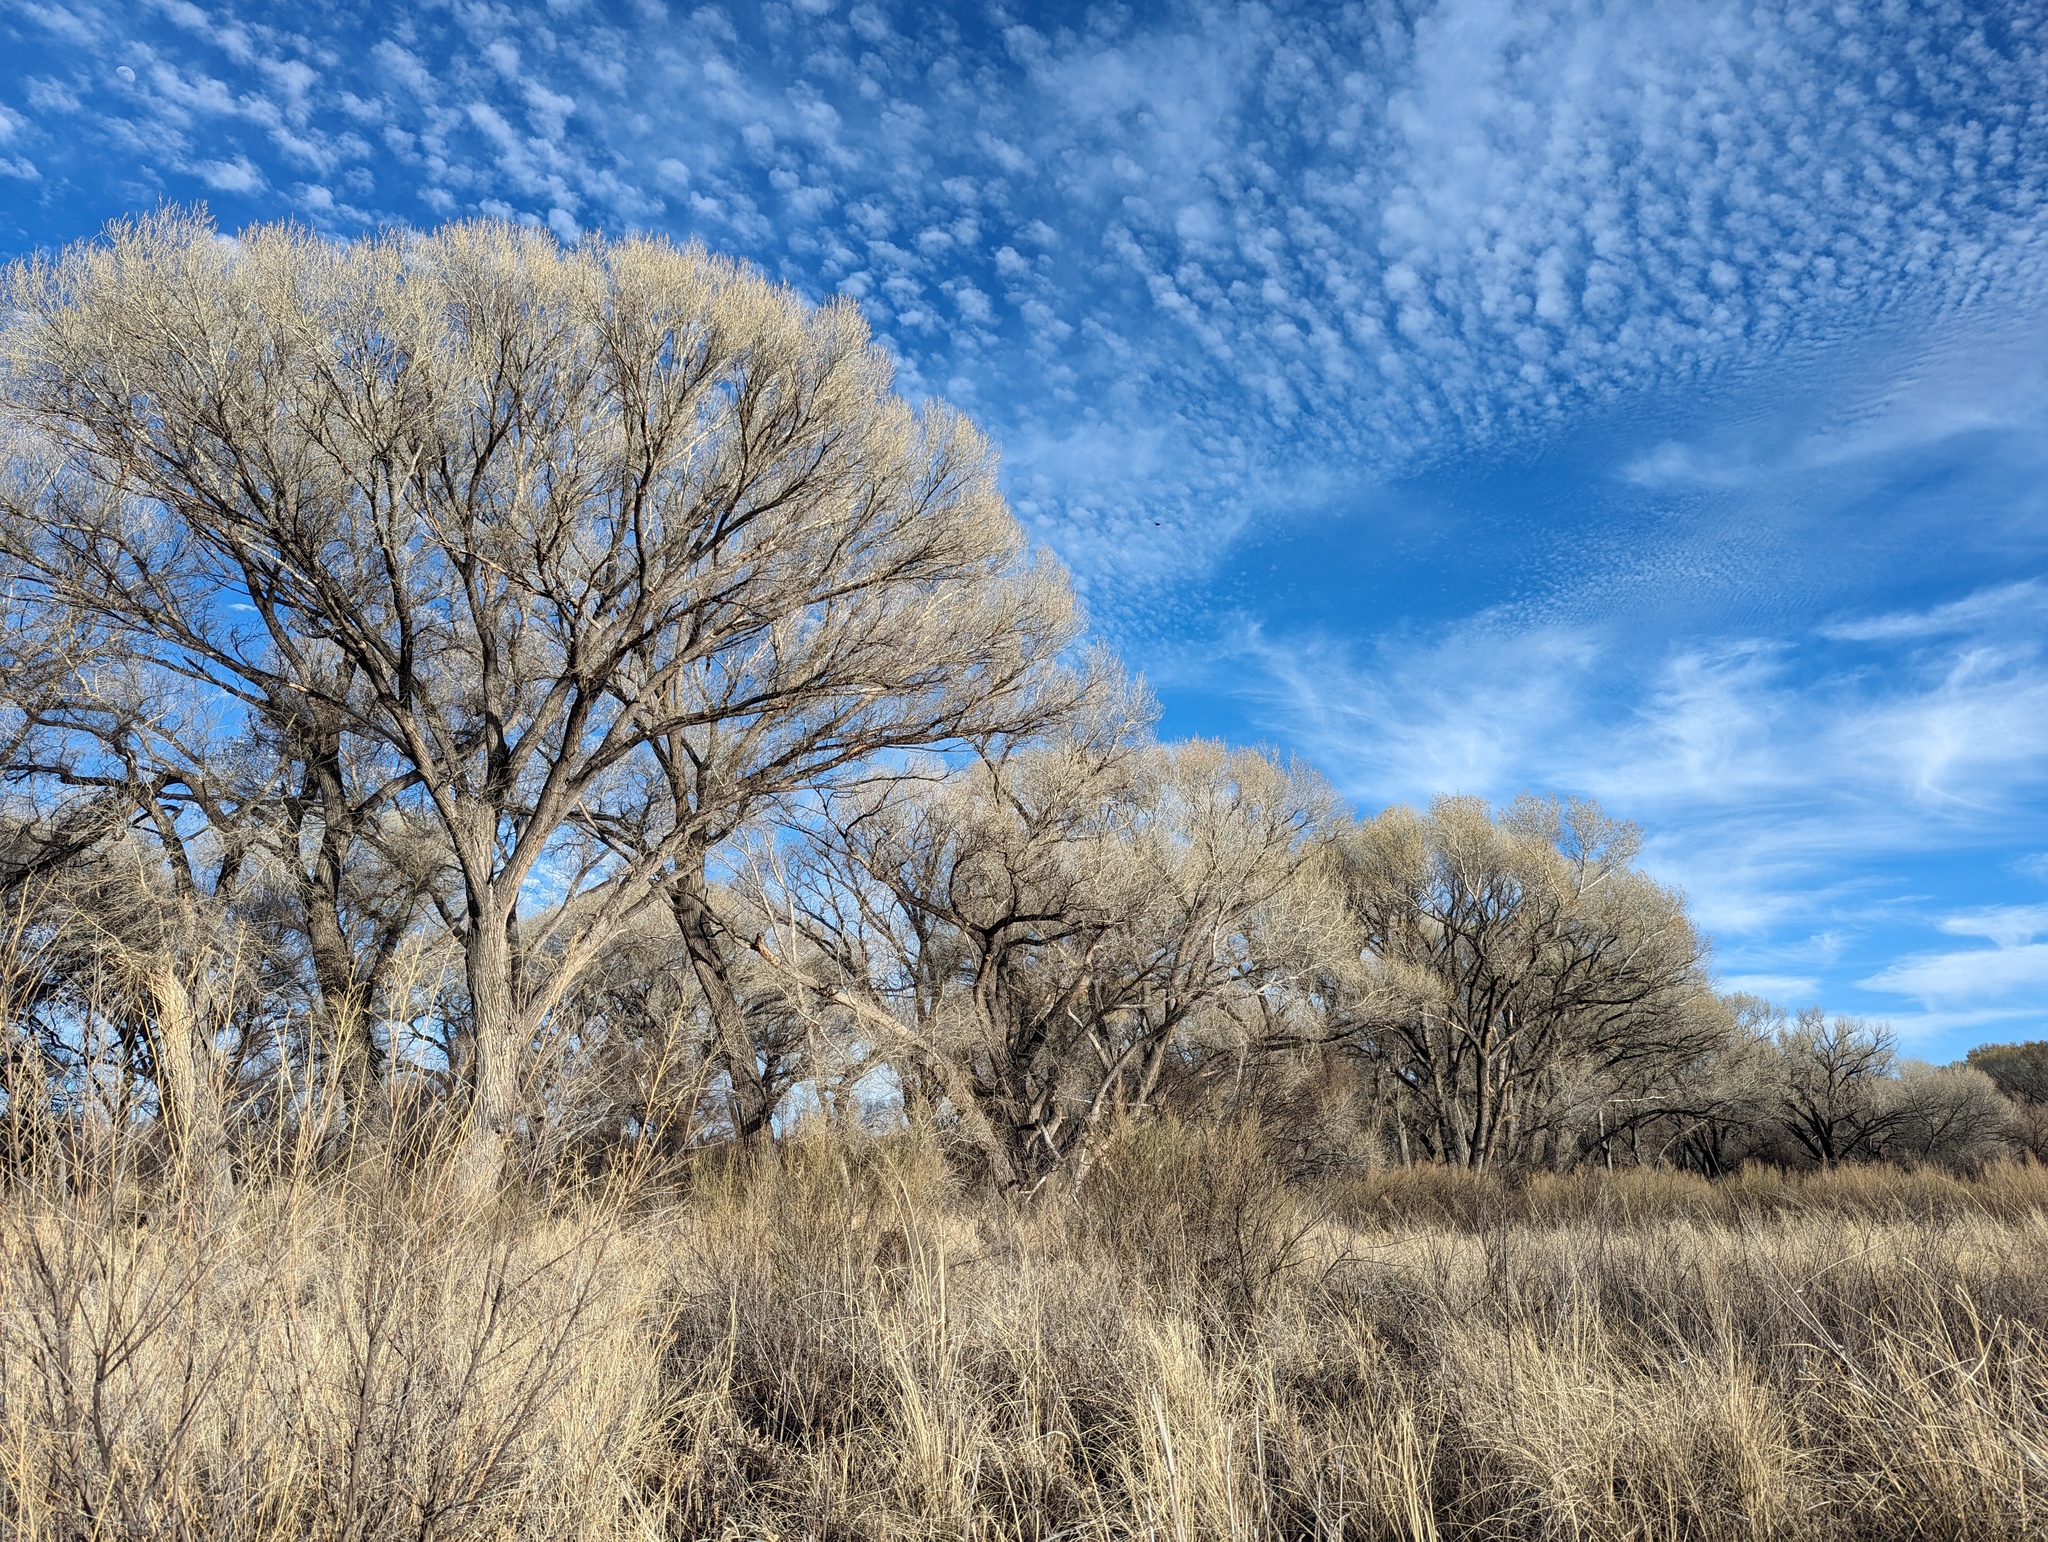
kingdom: Plantae
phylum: Tracheophyta
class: Magnoliopsida
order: Malpighiales
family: Salicaceae
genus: Populus
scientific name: Populus fremontii
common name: Fremont's cottonwood
